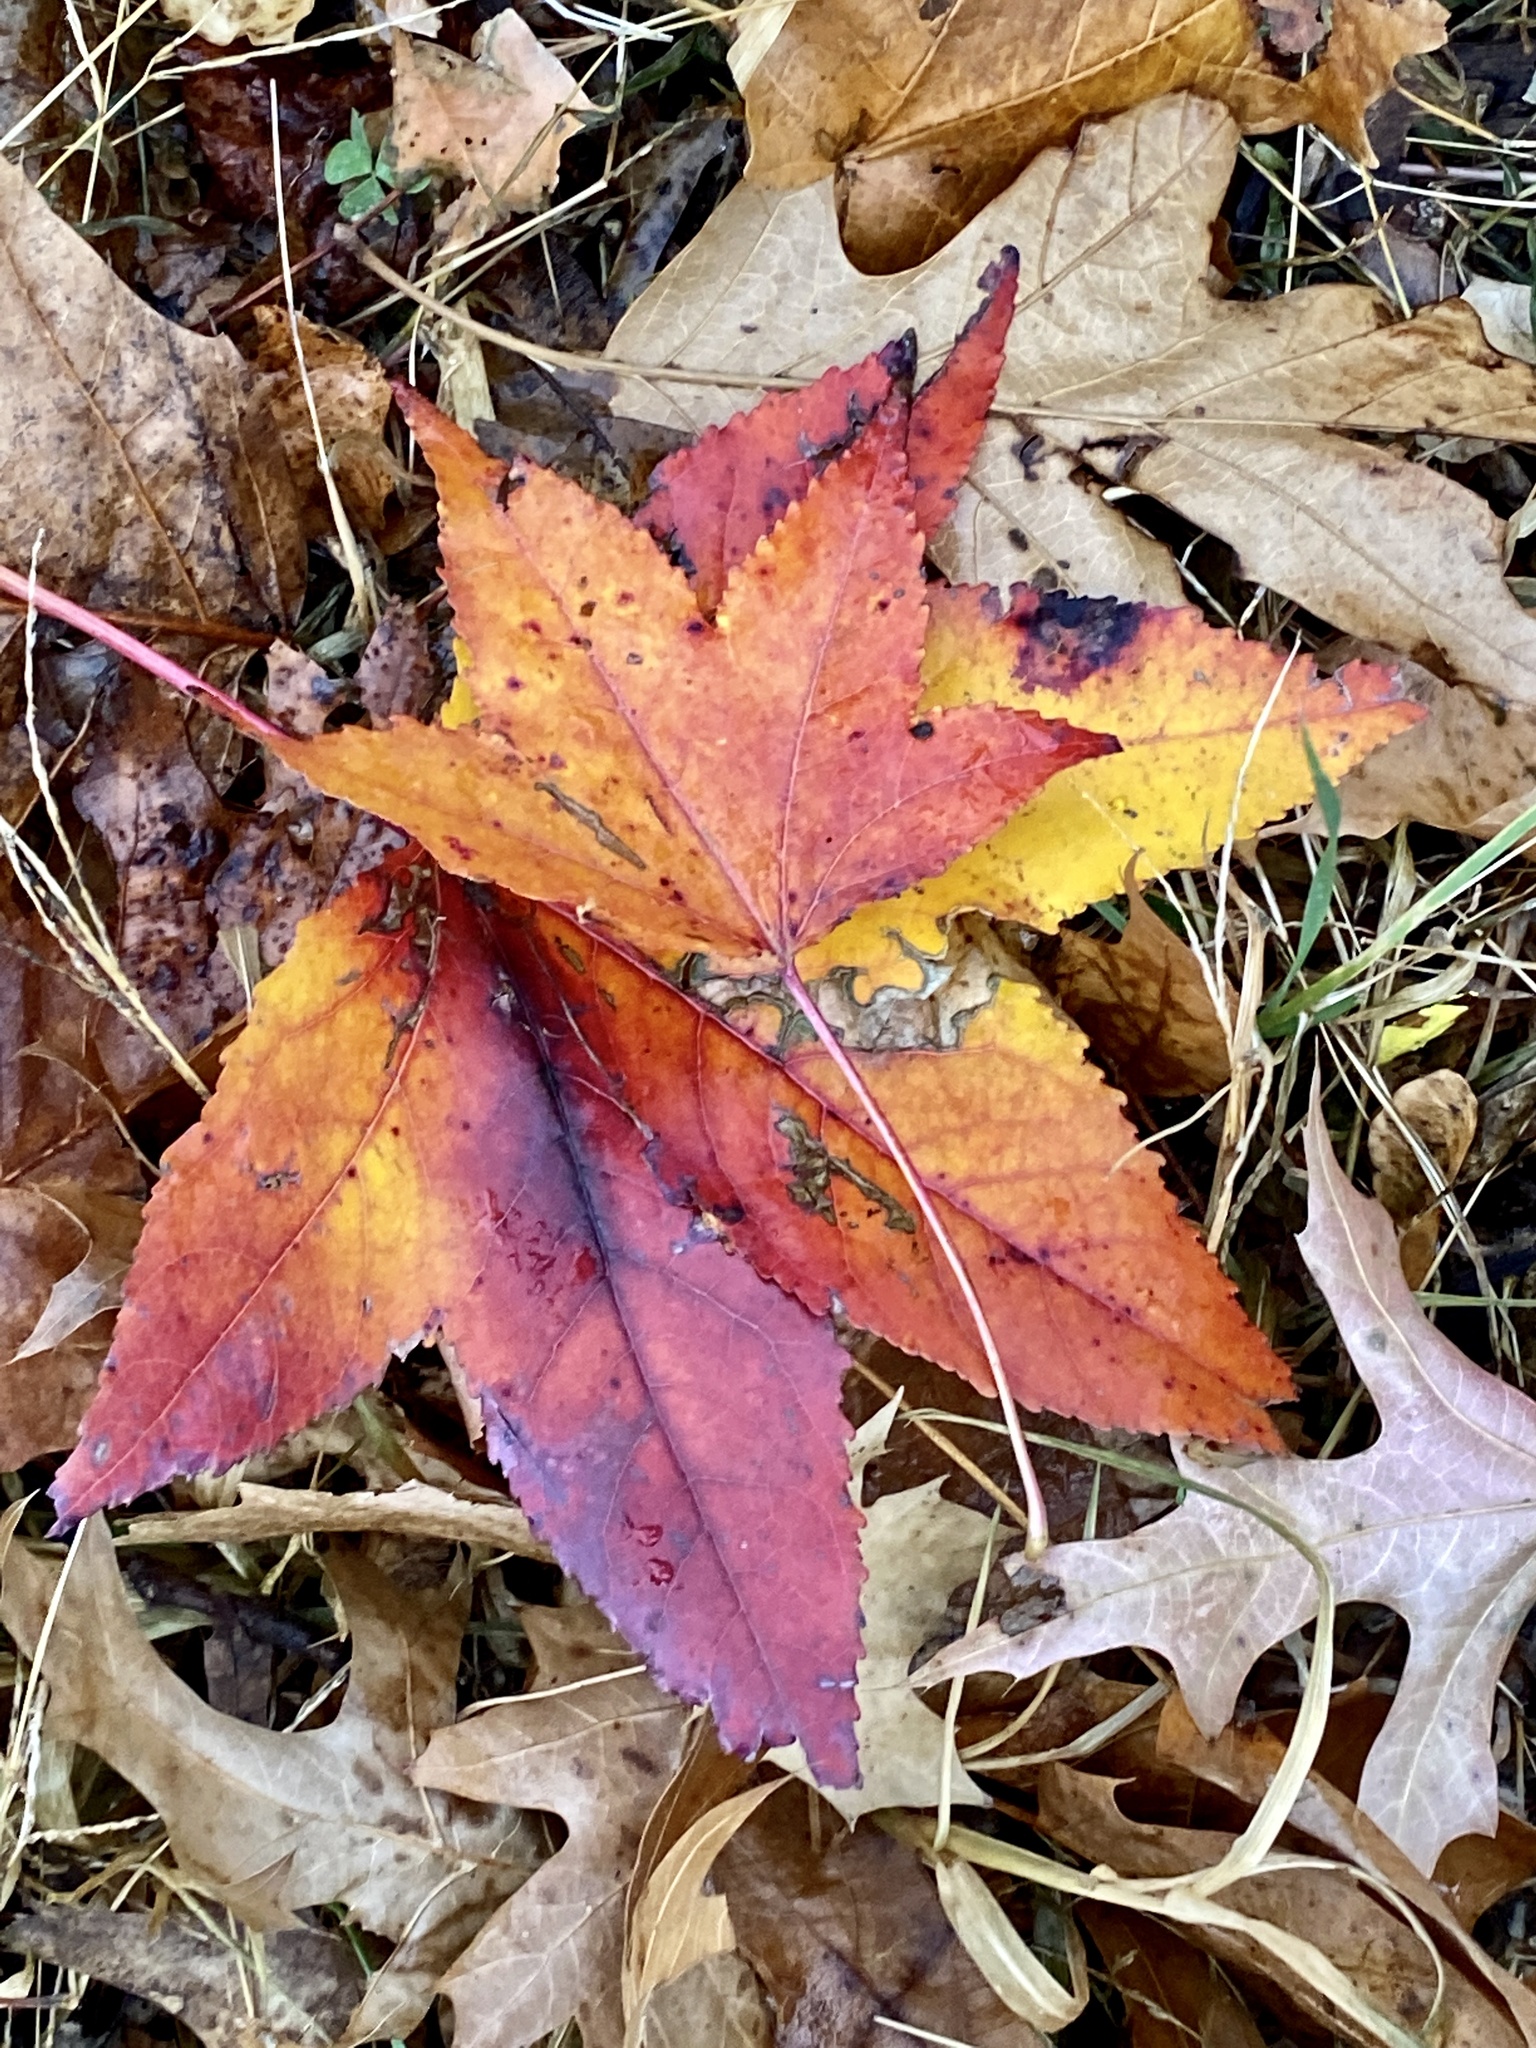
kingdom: Plantae
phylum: Tracheophyta
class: Magnoliopsida
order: Saxifragales
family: Altingiaceae
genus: Liquidambar
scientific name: Liquidambar styraciflua
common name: Sweet gum
